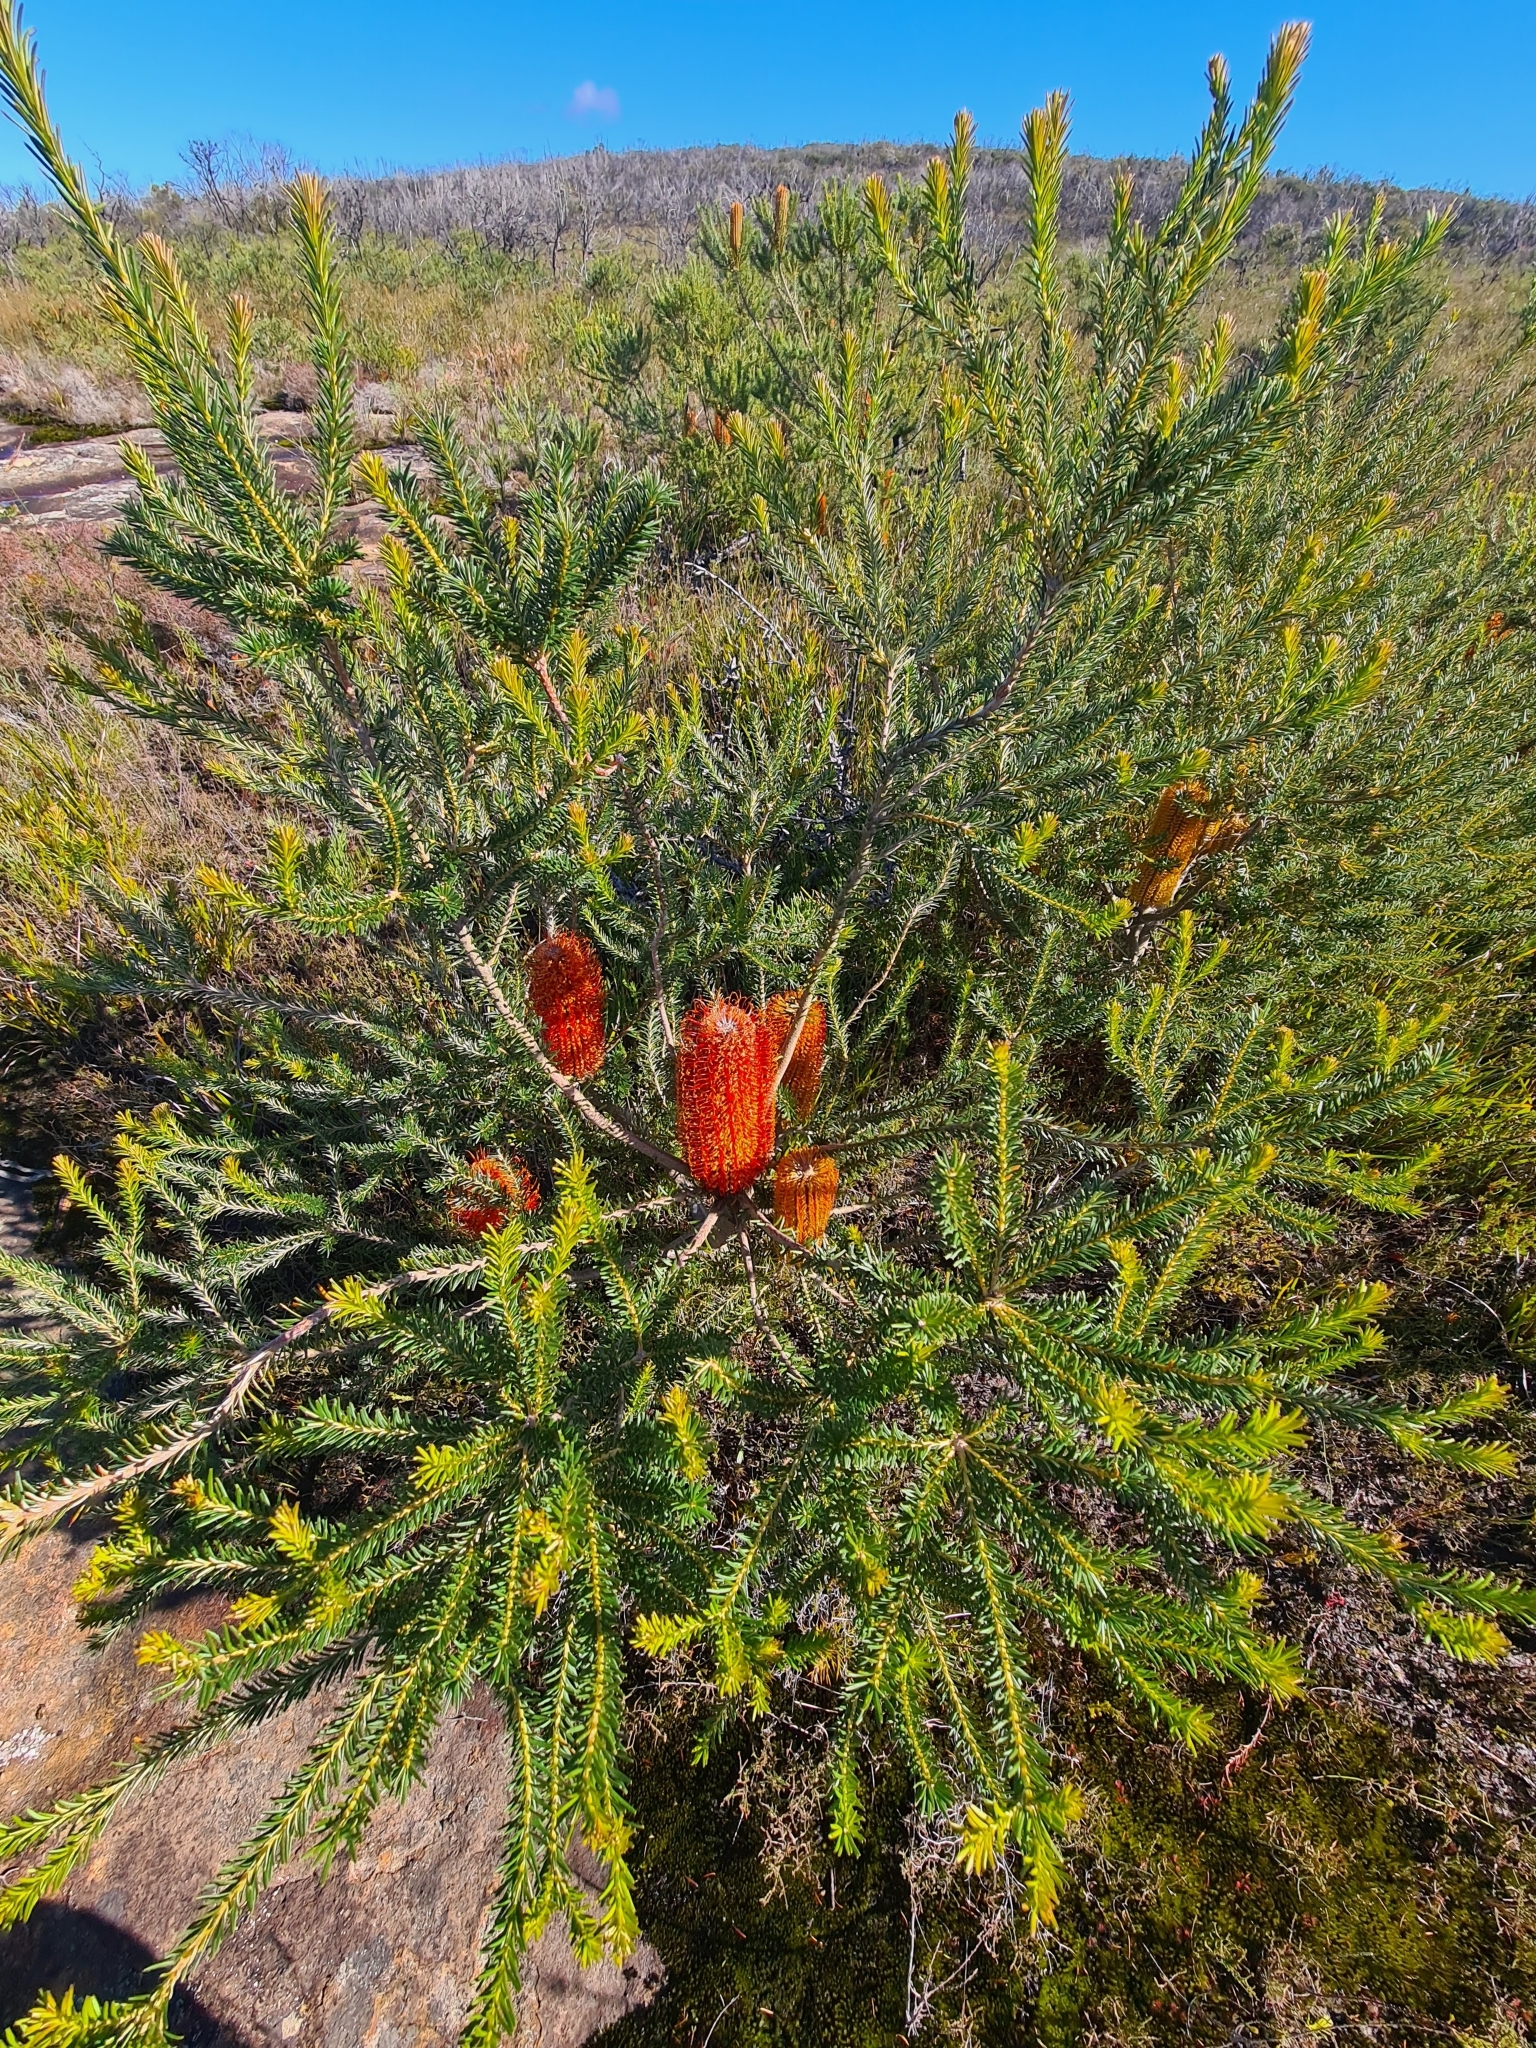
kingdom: Plantae
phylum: Tracheophyta
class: Magnoliopsida
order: Proteales
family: Proteaceae
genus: Banksia
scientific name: Banksia ericifolia
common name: Heath-leaf banksia
